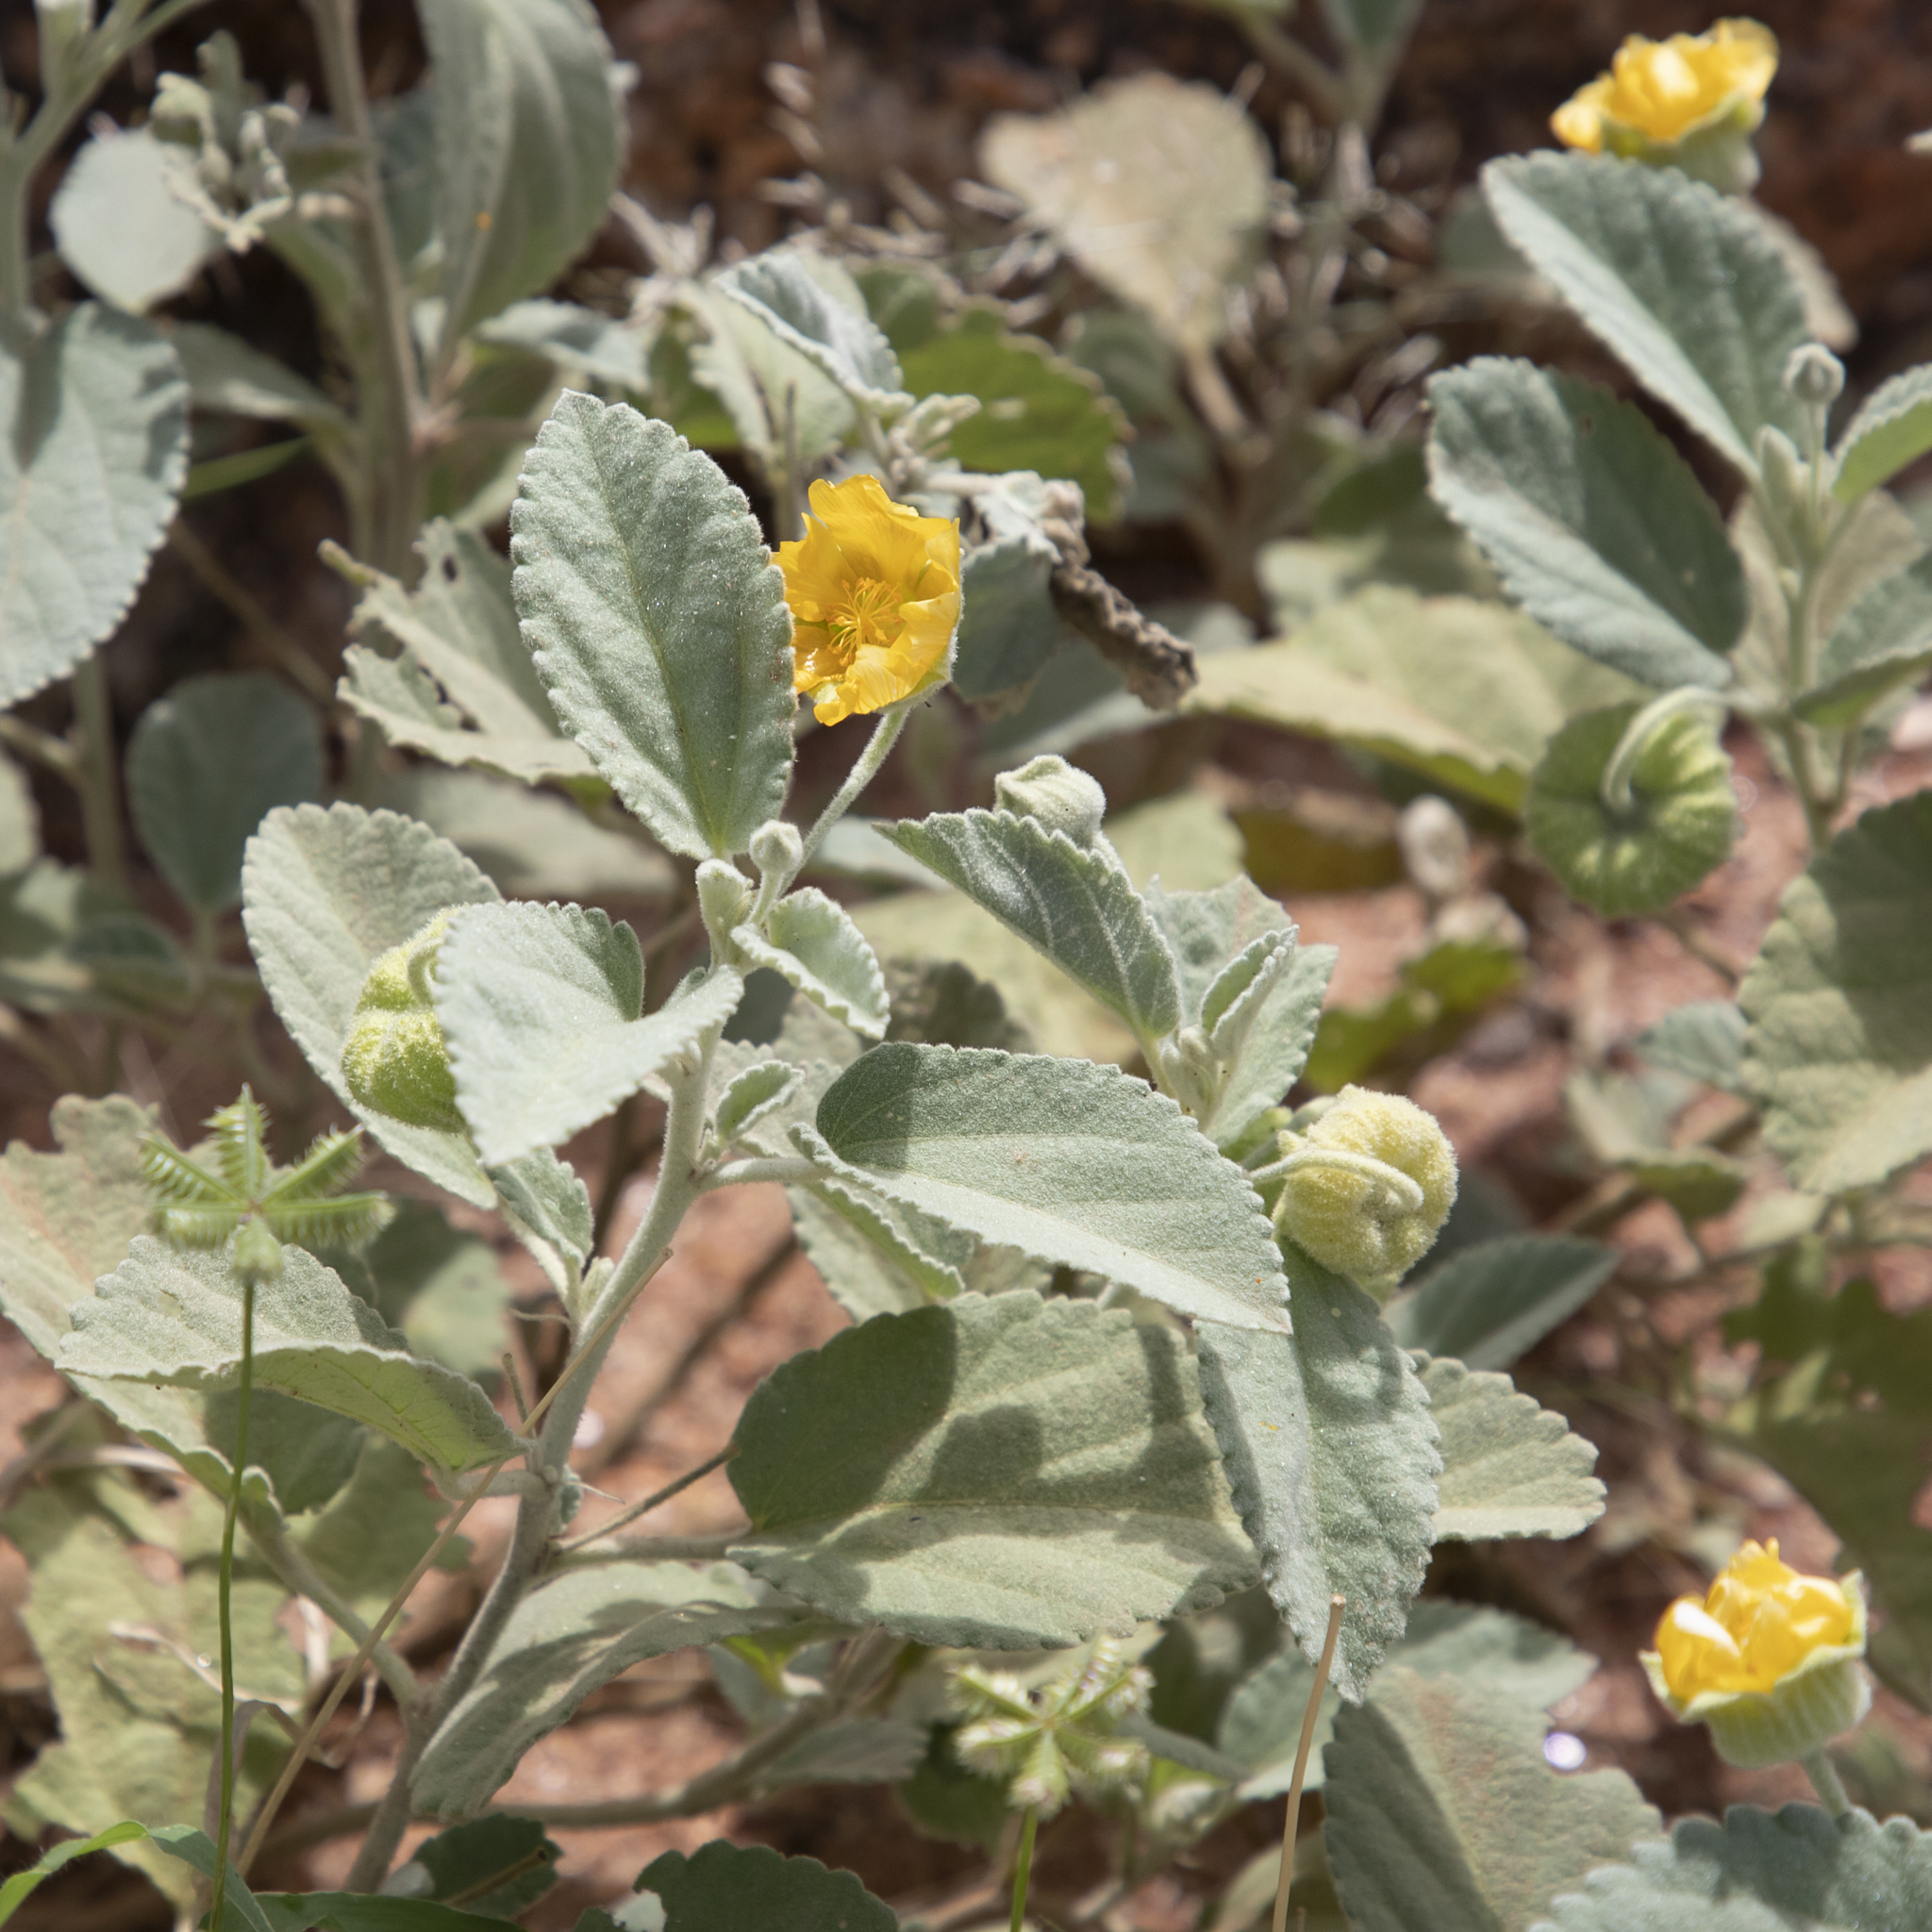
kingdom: Plantae
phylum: Tracheophyta
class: Magnoliopsida
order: Malvales
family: Malvaceae
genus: Sida
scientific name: Sida platycalyx
